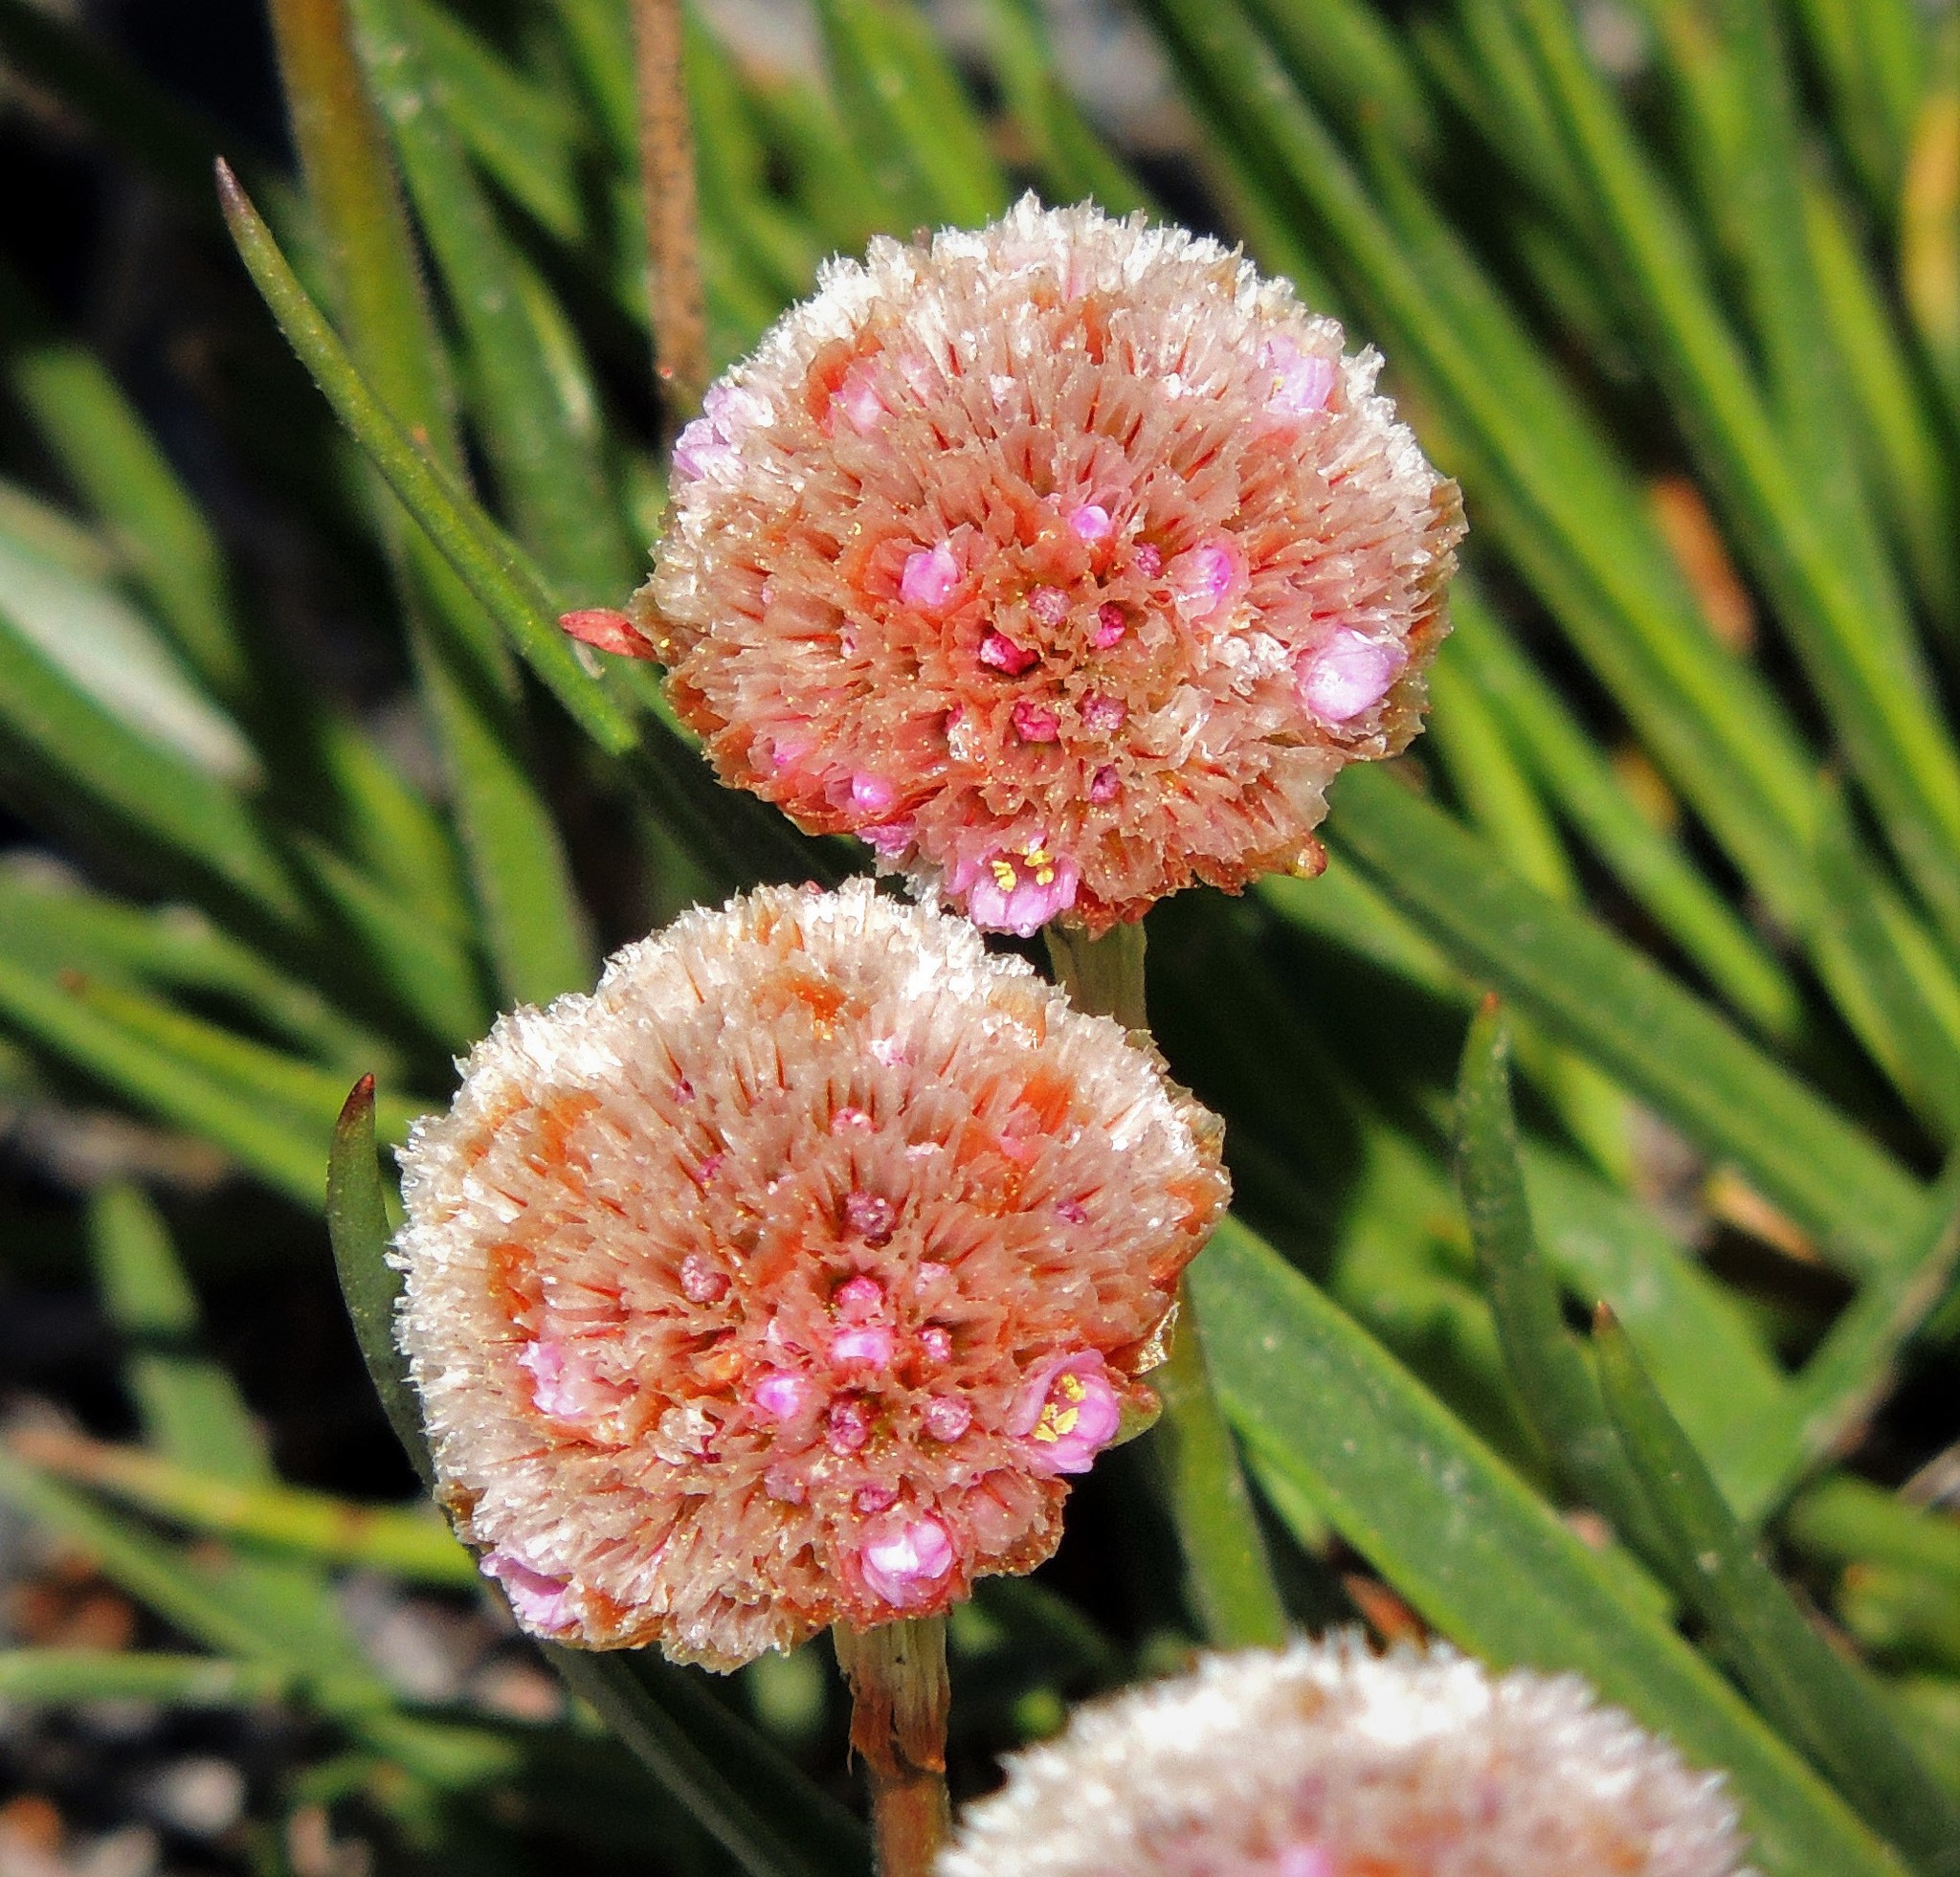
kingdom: Plantae
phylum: Tracheophyta
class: Magnoliopsida
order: Caryophyllales
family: Plumbaginaceae
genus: Armeria
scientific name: Armeria curvifolia
